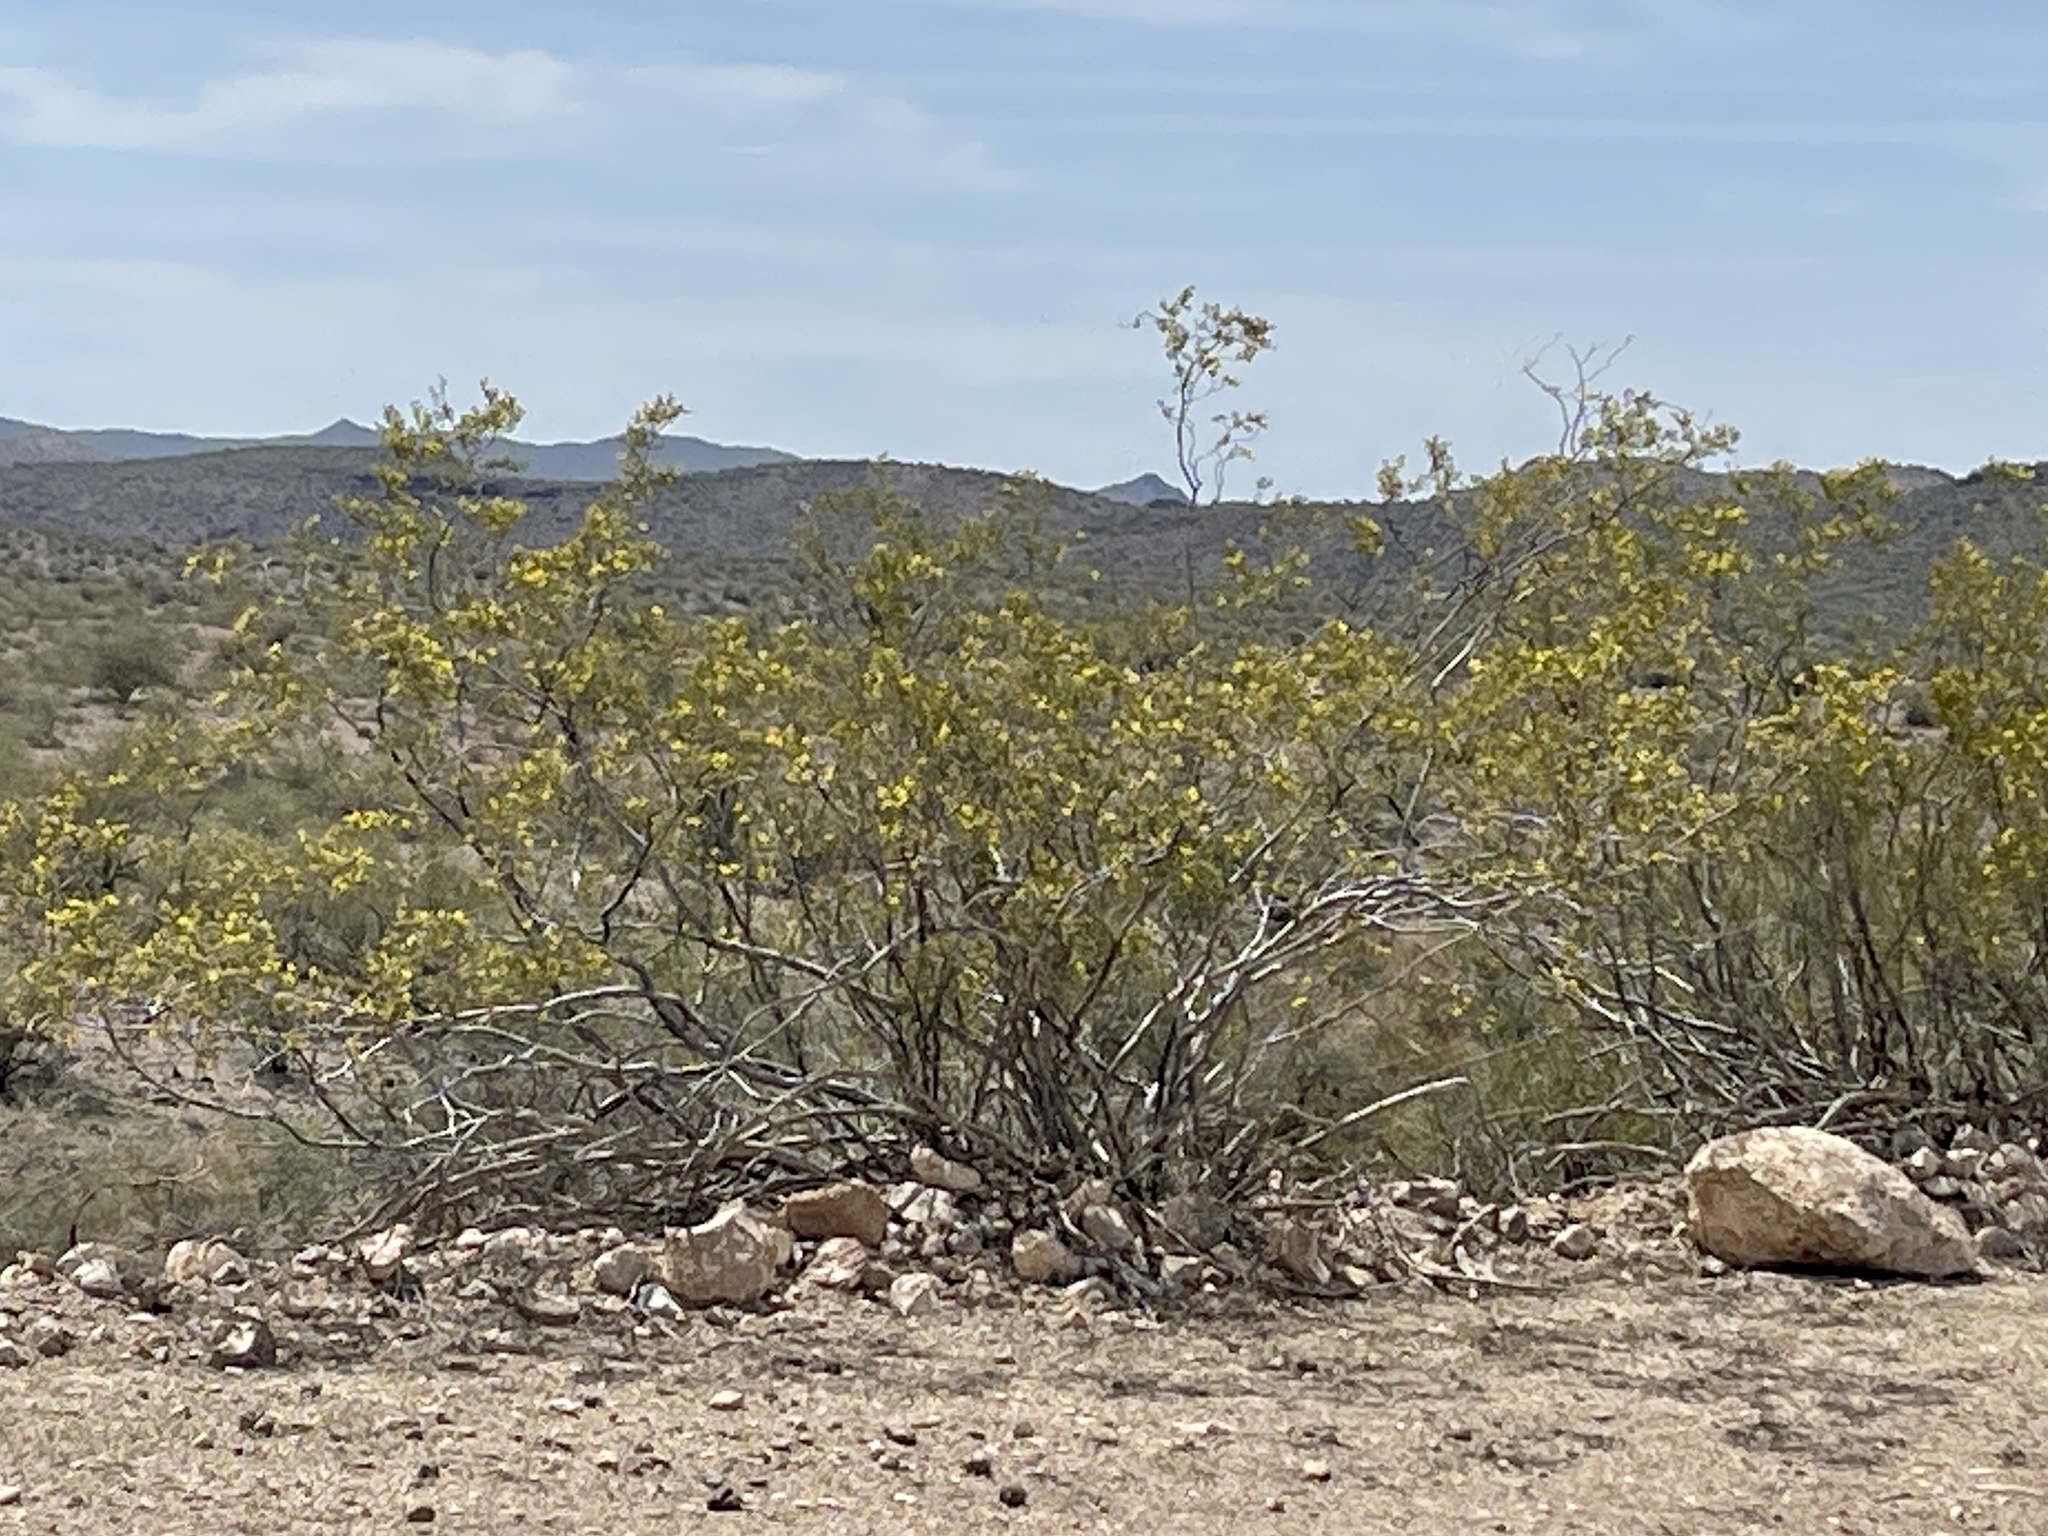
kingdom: Plantae
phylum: Tracheophyta
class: Magnoliopsida
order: Zygophyllales
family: Zygophyllaceae
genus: Larrea
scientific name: Larrea tridentata
